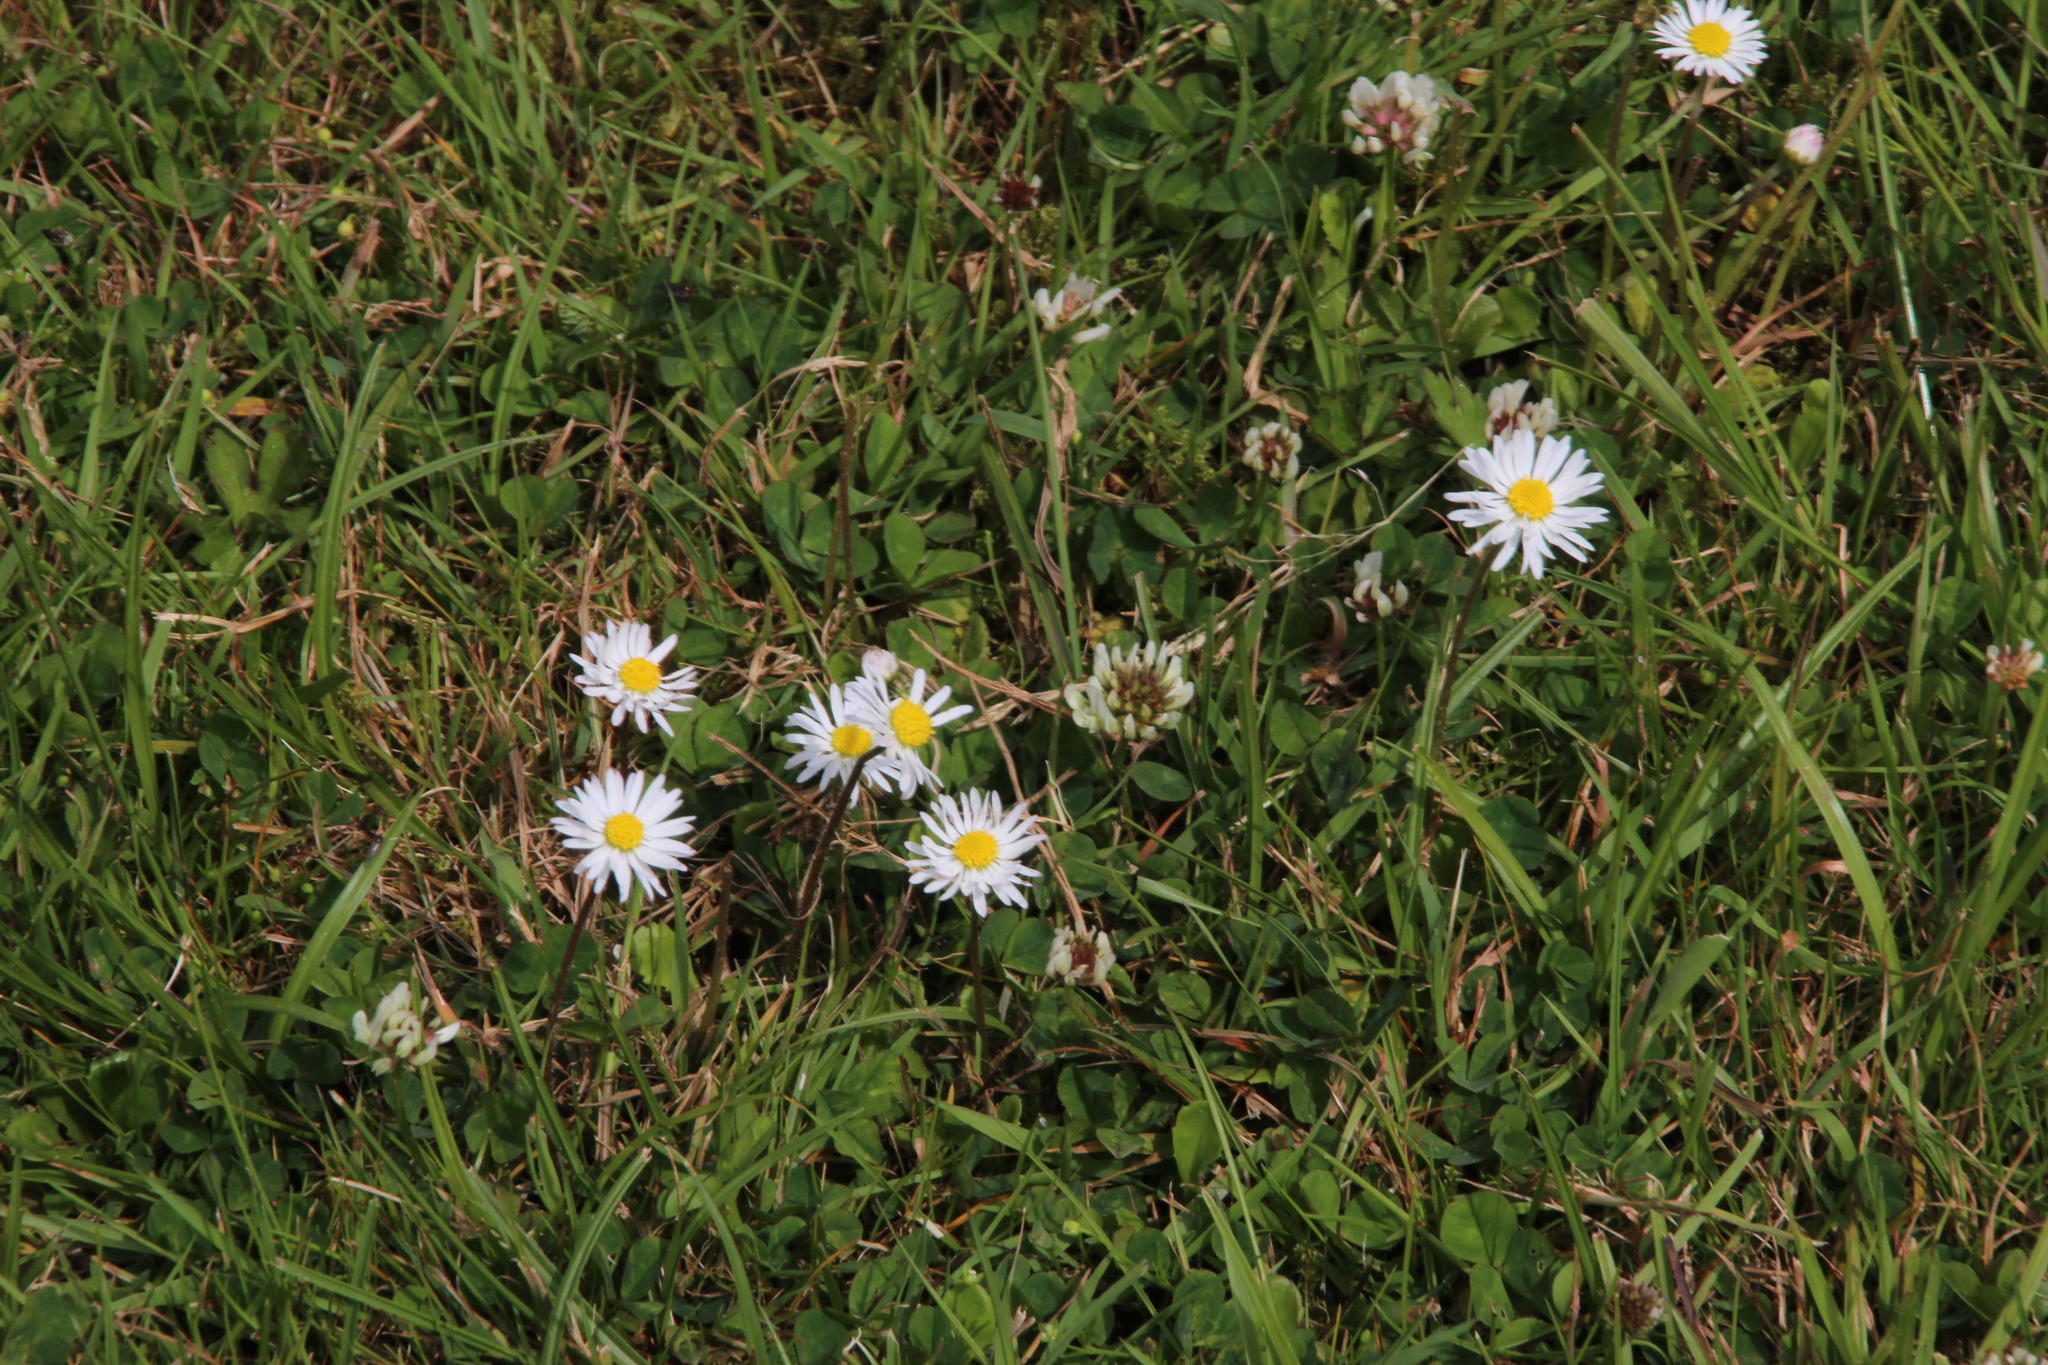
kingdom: Plantae
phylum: Tracheophyta
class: Magnoliopsida
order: Asterales
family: Asteraceae
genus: Bellis
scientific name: Bellis perennis
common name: Lawndaisy
